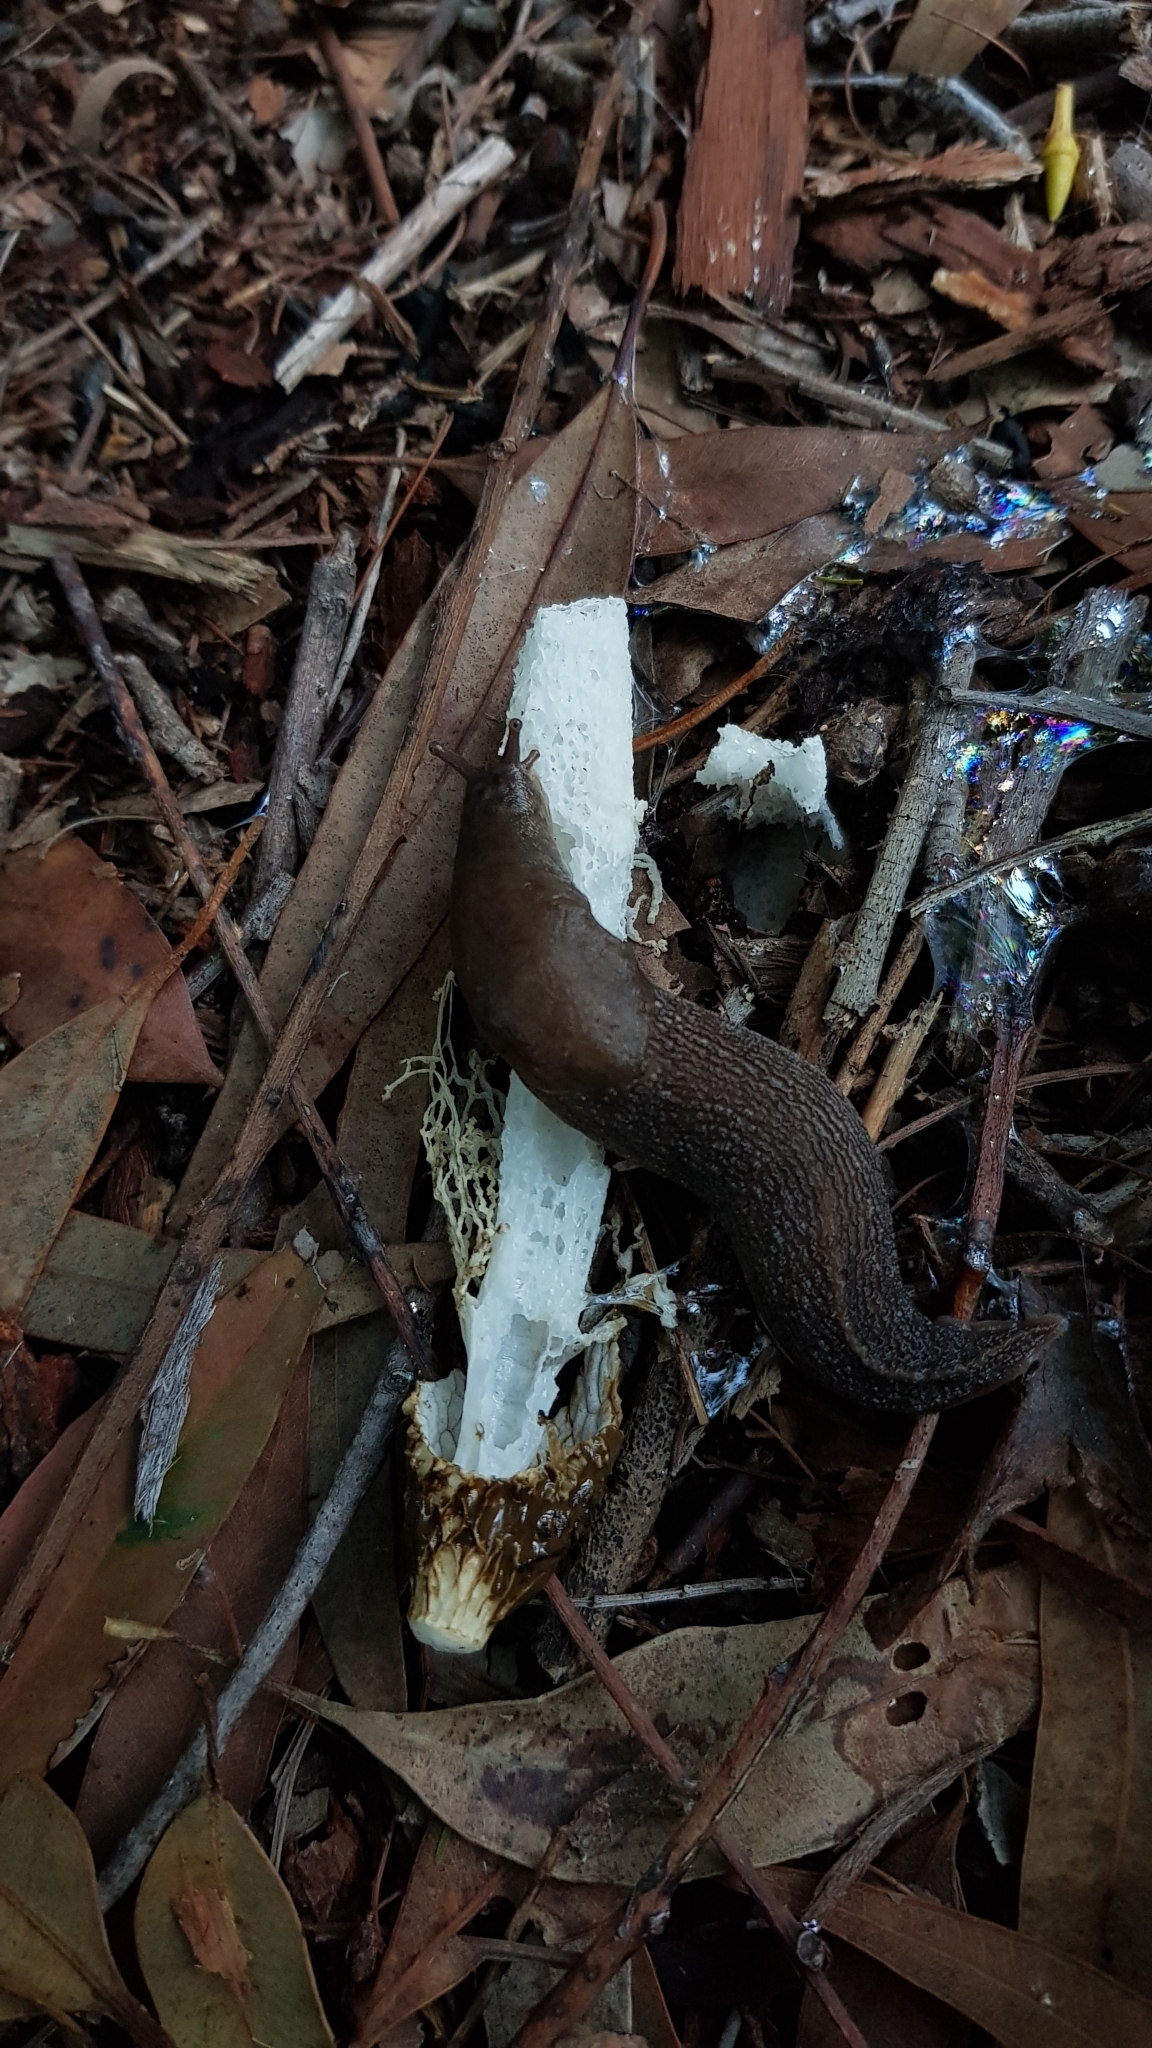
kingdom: Fungi
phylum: Basidiomycota
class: Agaricomycetes
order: Phallales
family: Phallaceae
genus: Phallus
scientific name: Phallus indusiatus
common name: Bridal veil stinkhorn
